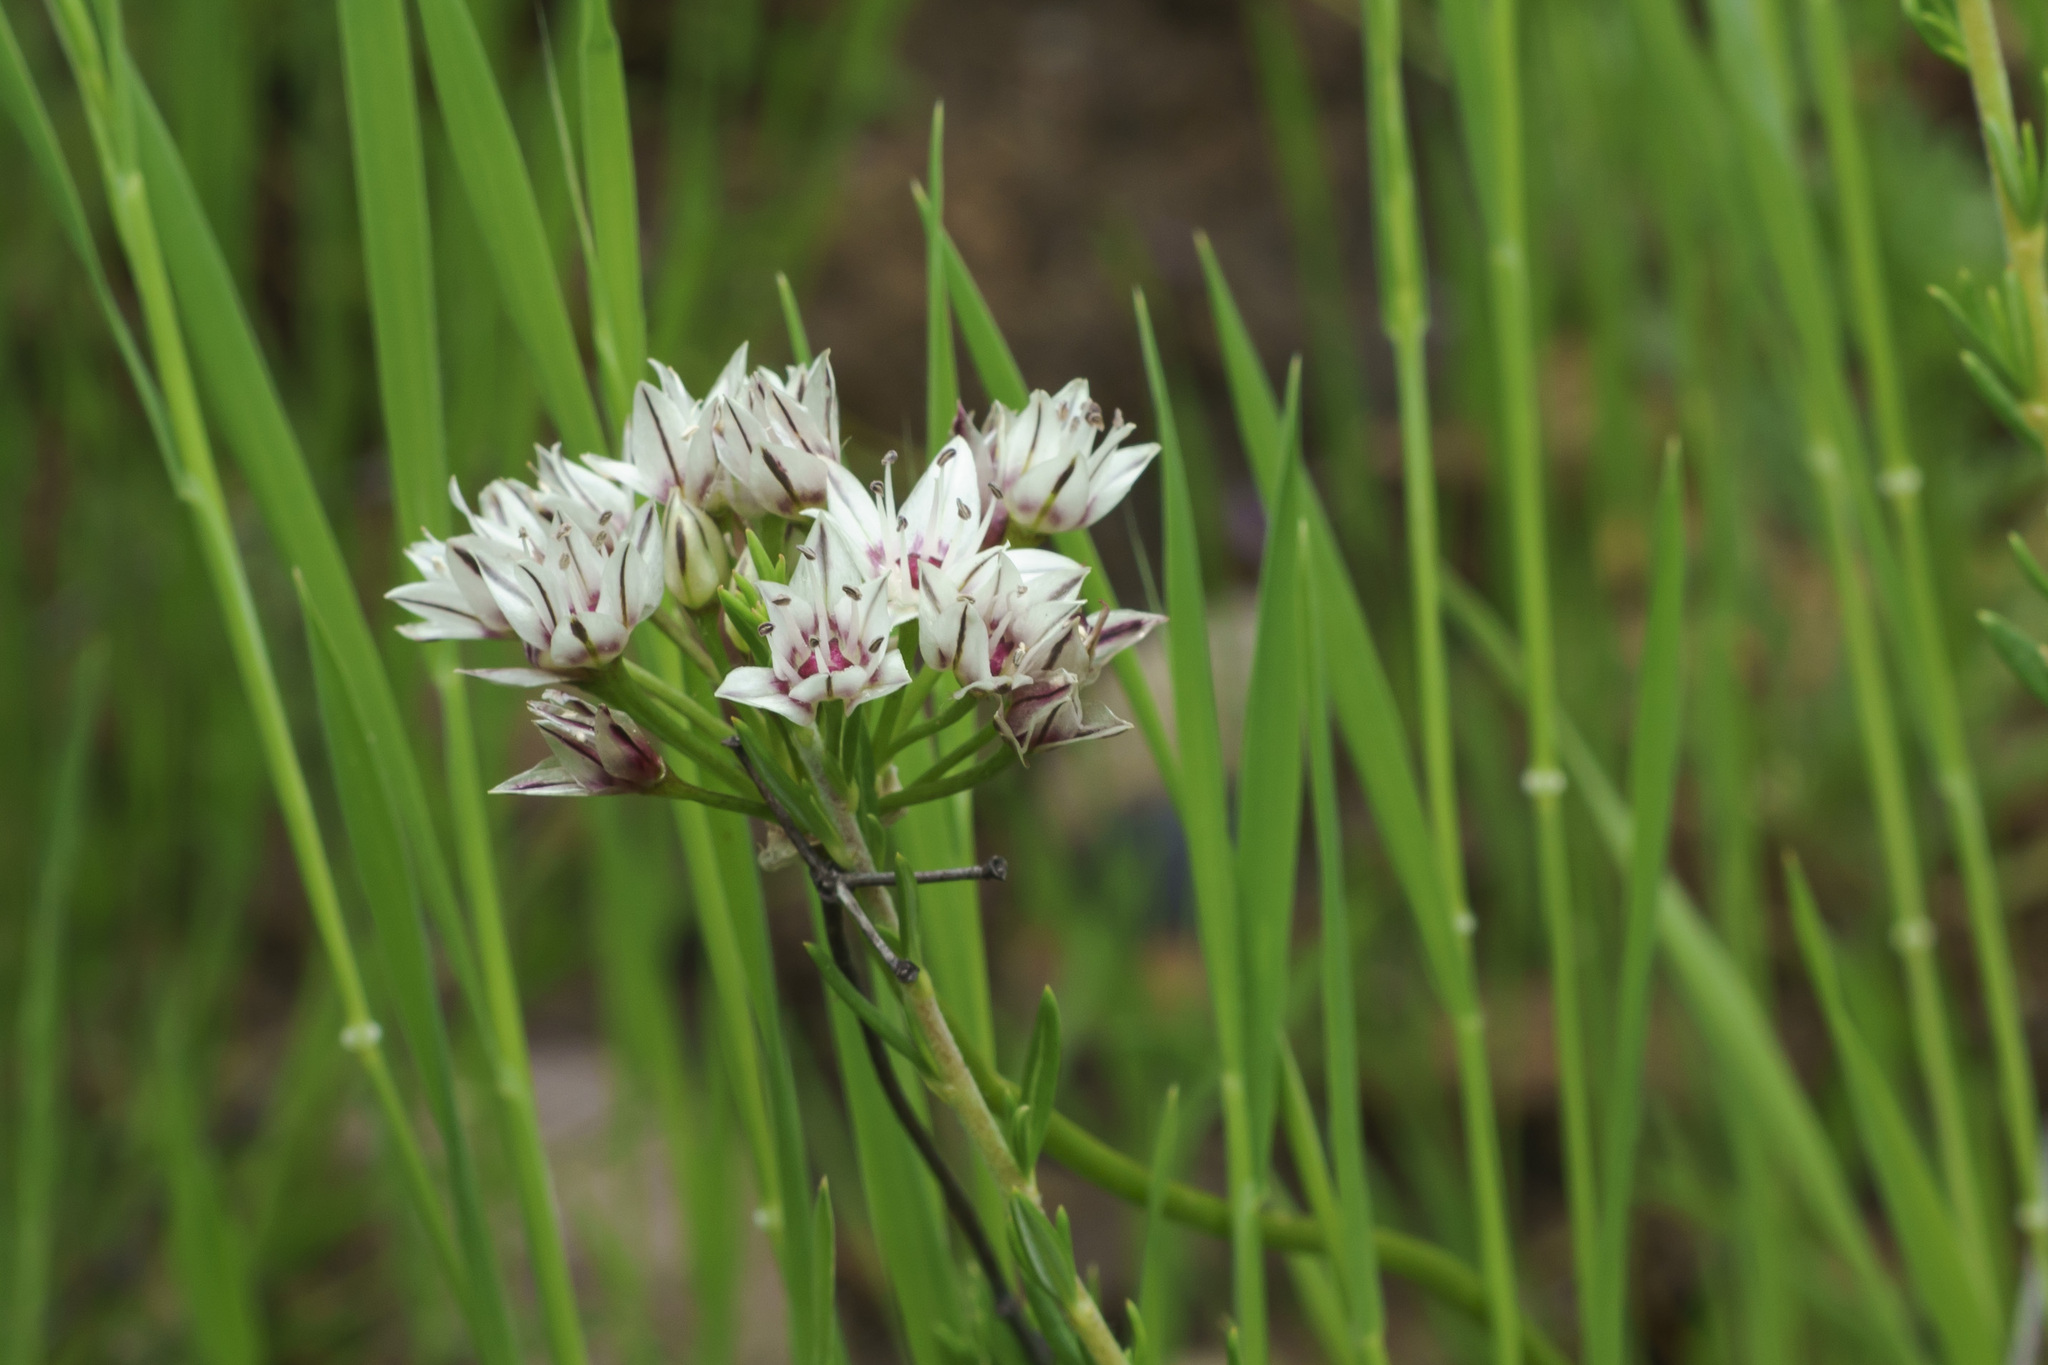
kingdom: Plantae
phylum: Tracheophyta
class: Liliopsida
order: Asparagales
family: Amaryllidaceae
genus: Allium
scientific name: Allium haematochiton
